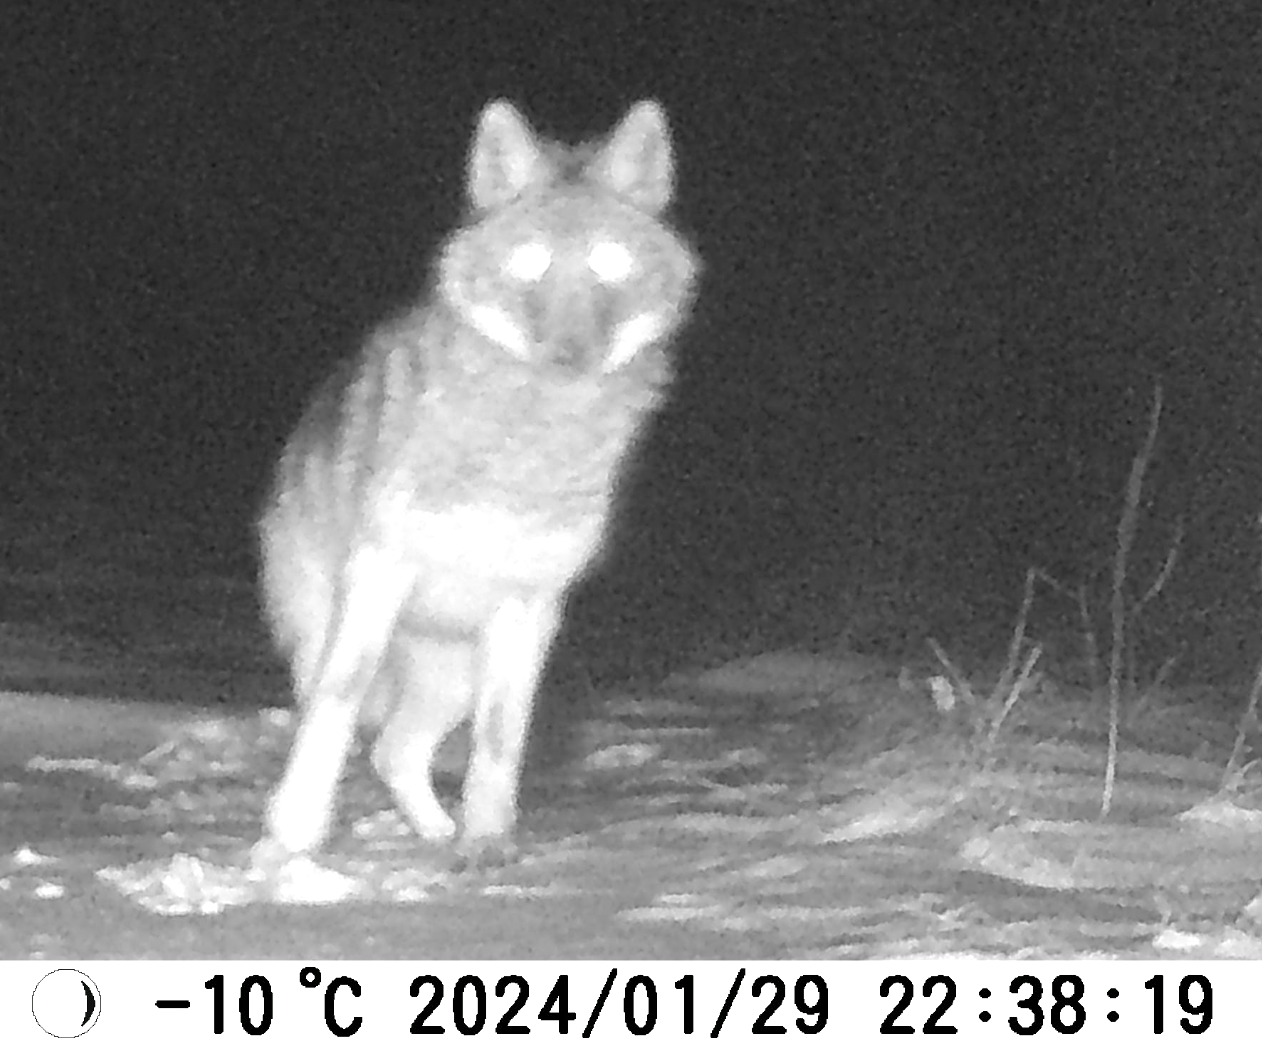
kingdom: Animalia
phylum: Chordata
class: Mammalia
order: Carnivora
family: Canidae
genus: Canis
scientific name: Canis latrans
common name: Coyote
